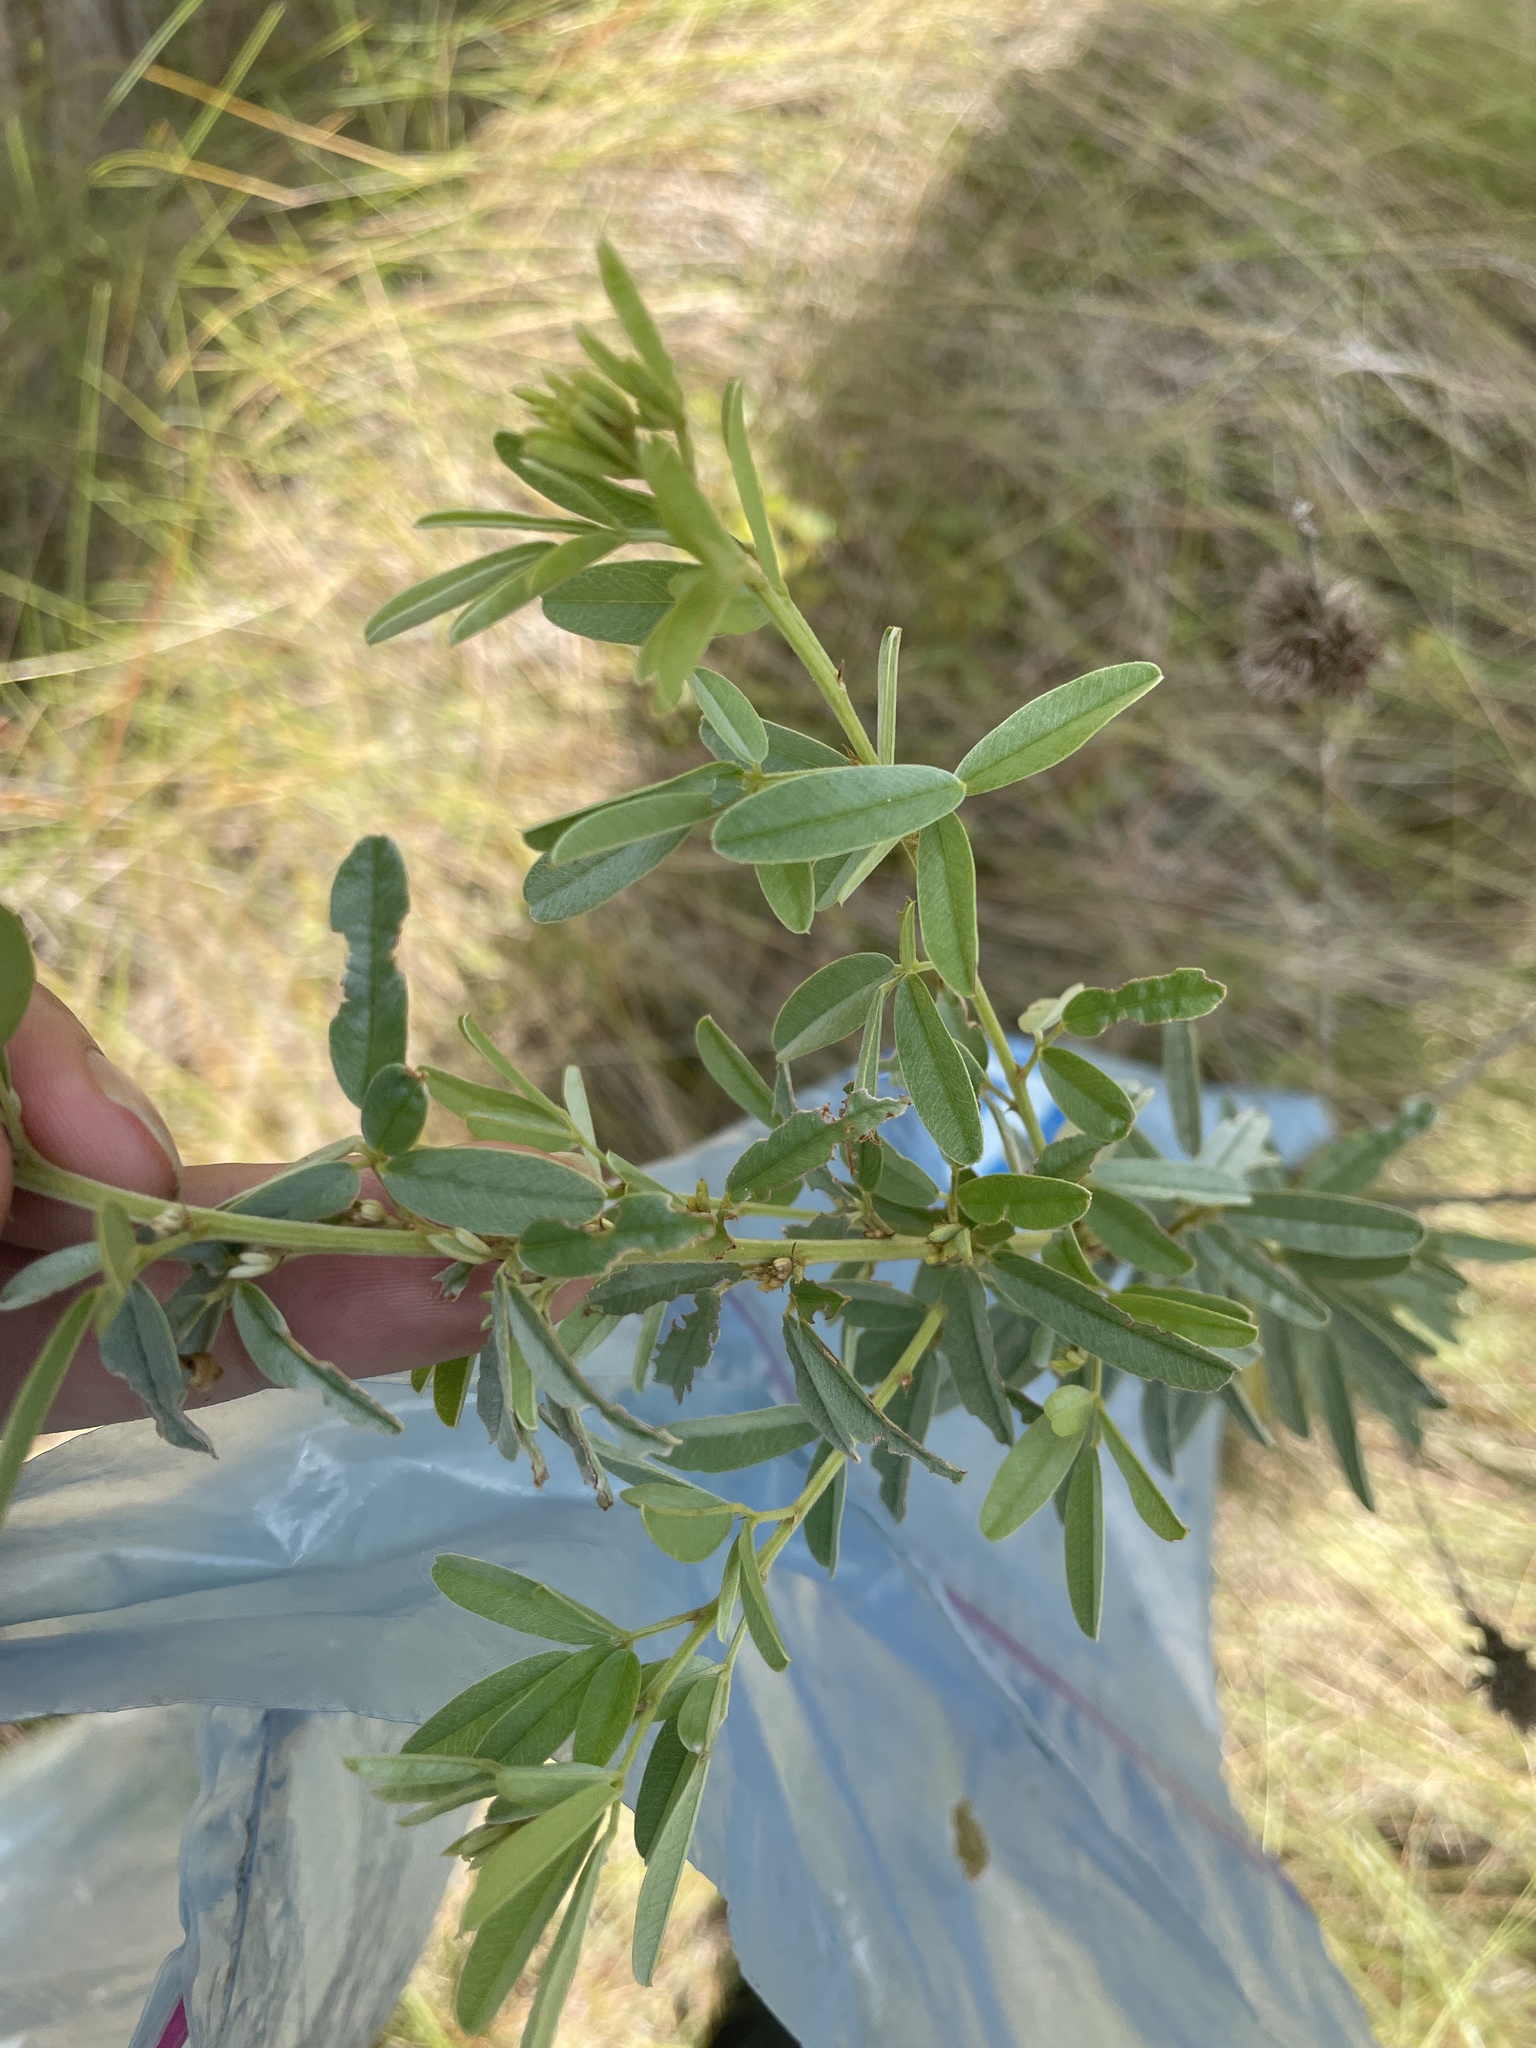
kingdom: Plantae
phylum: Tracheophyta
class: Magnoliopsida
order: Fabales
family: Fabaceae
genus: Lespedeza
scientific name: Lespedeza capitata
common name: Dusty clover
